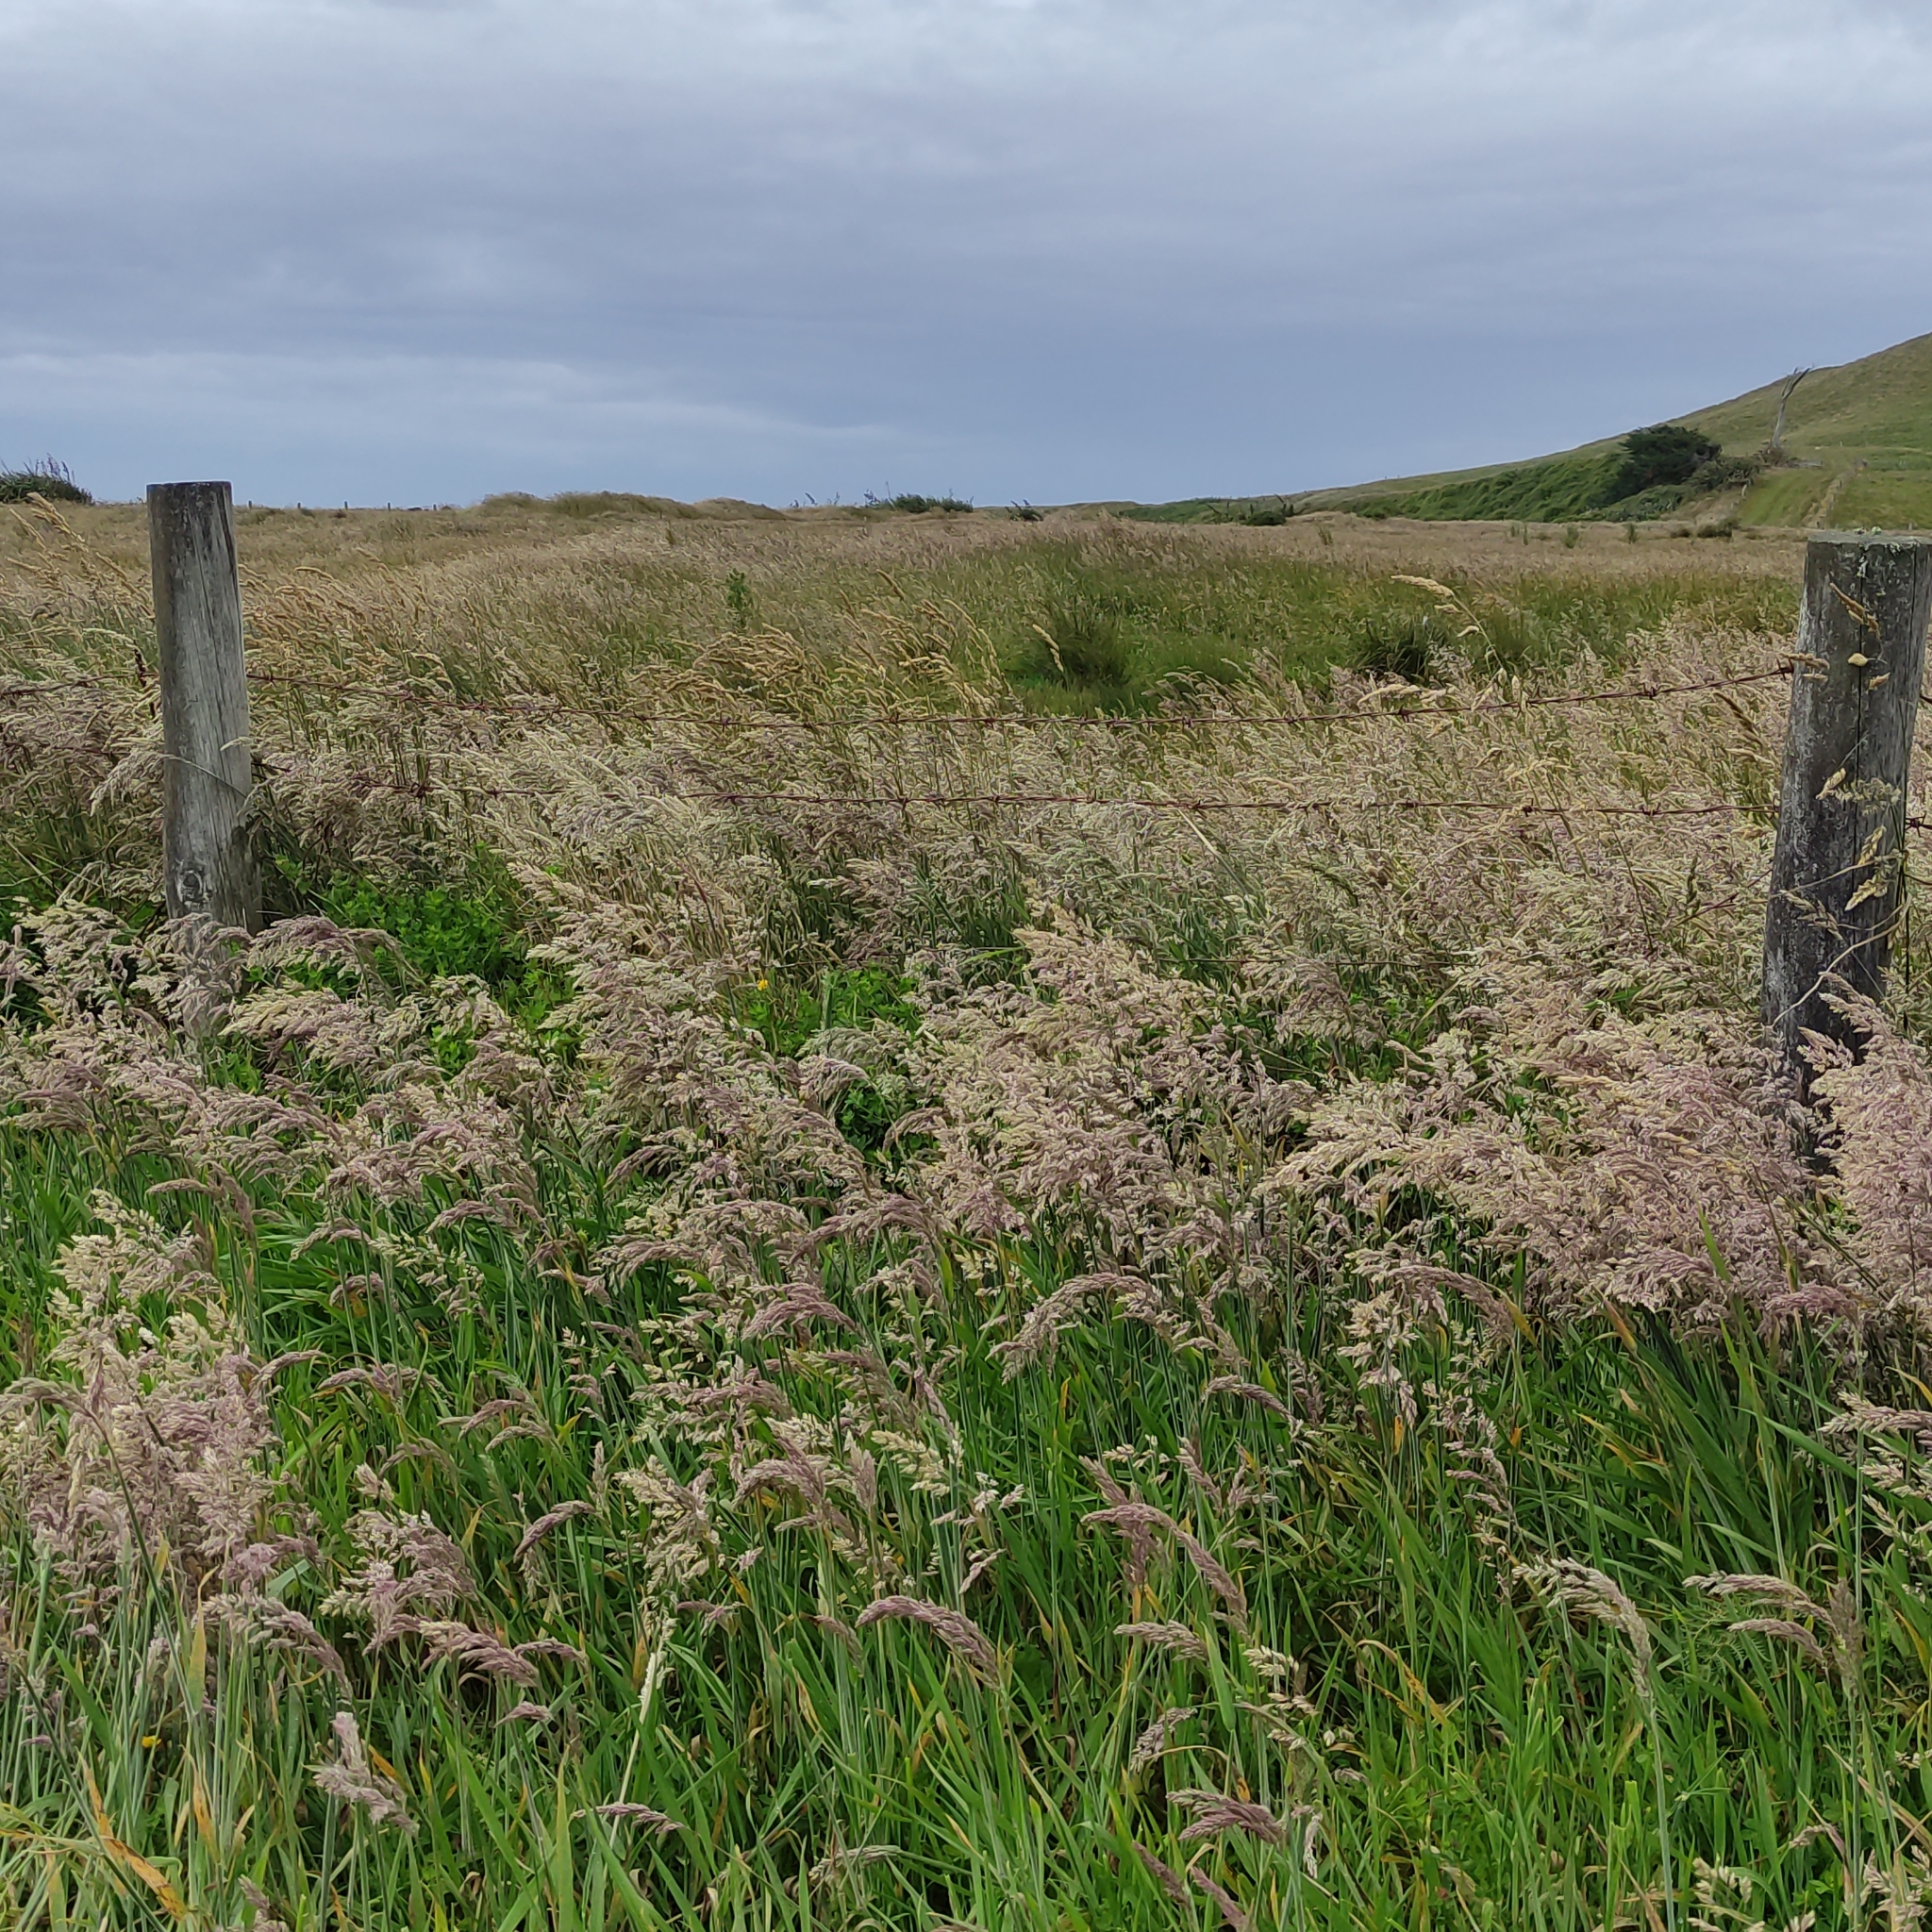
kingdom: Plantae
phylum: Tracheophyta
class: Liliopsida
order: Poales
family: Poaceae
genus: Holcus
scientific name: Holcus lanatus
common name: Yorkshire-fog
